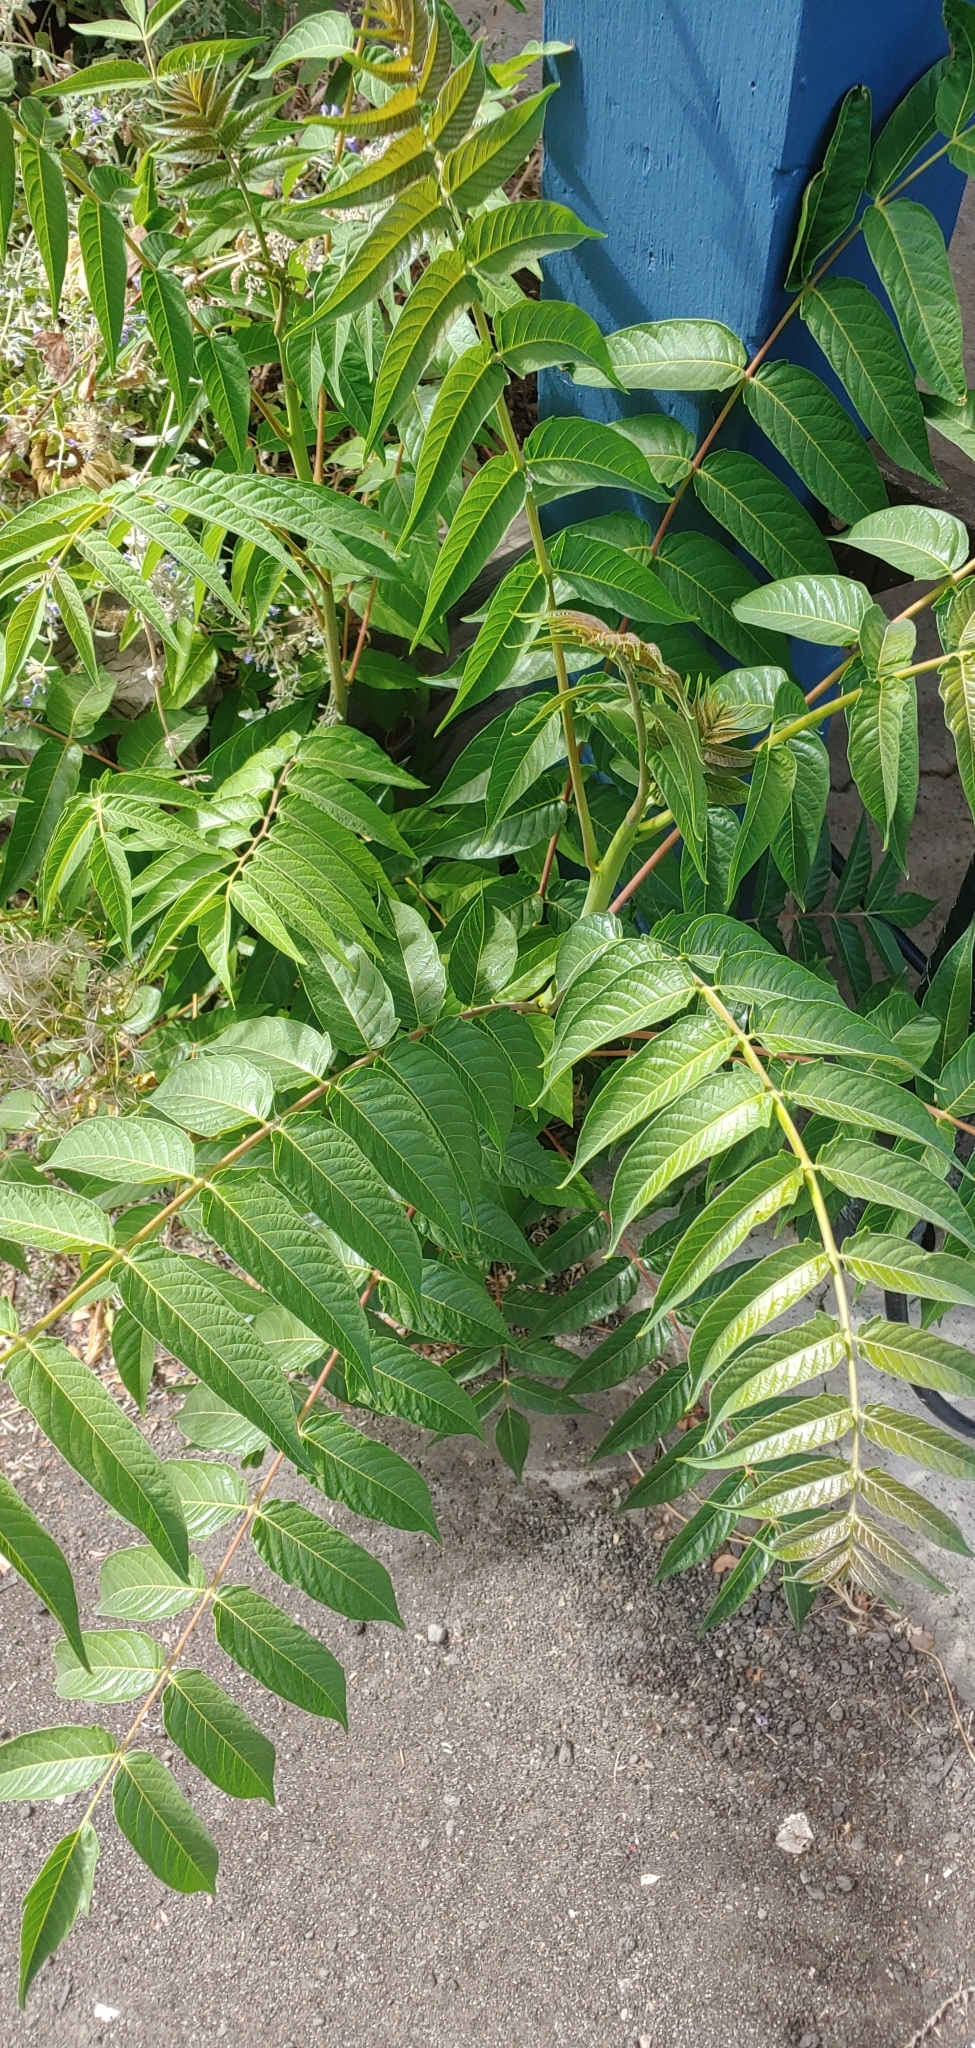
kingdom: Plantae
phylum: Tracheophyta
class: Magnoliopsida
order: Sapindales
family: Simaroubaceae
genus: Ailanthus
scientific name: Ailanthus altissima
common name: Tree-of-heaven
